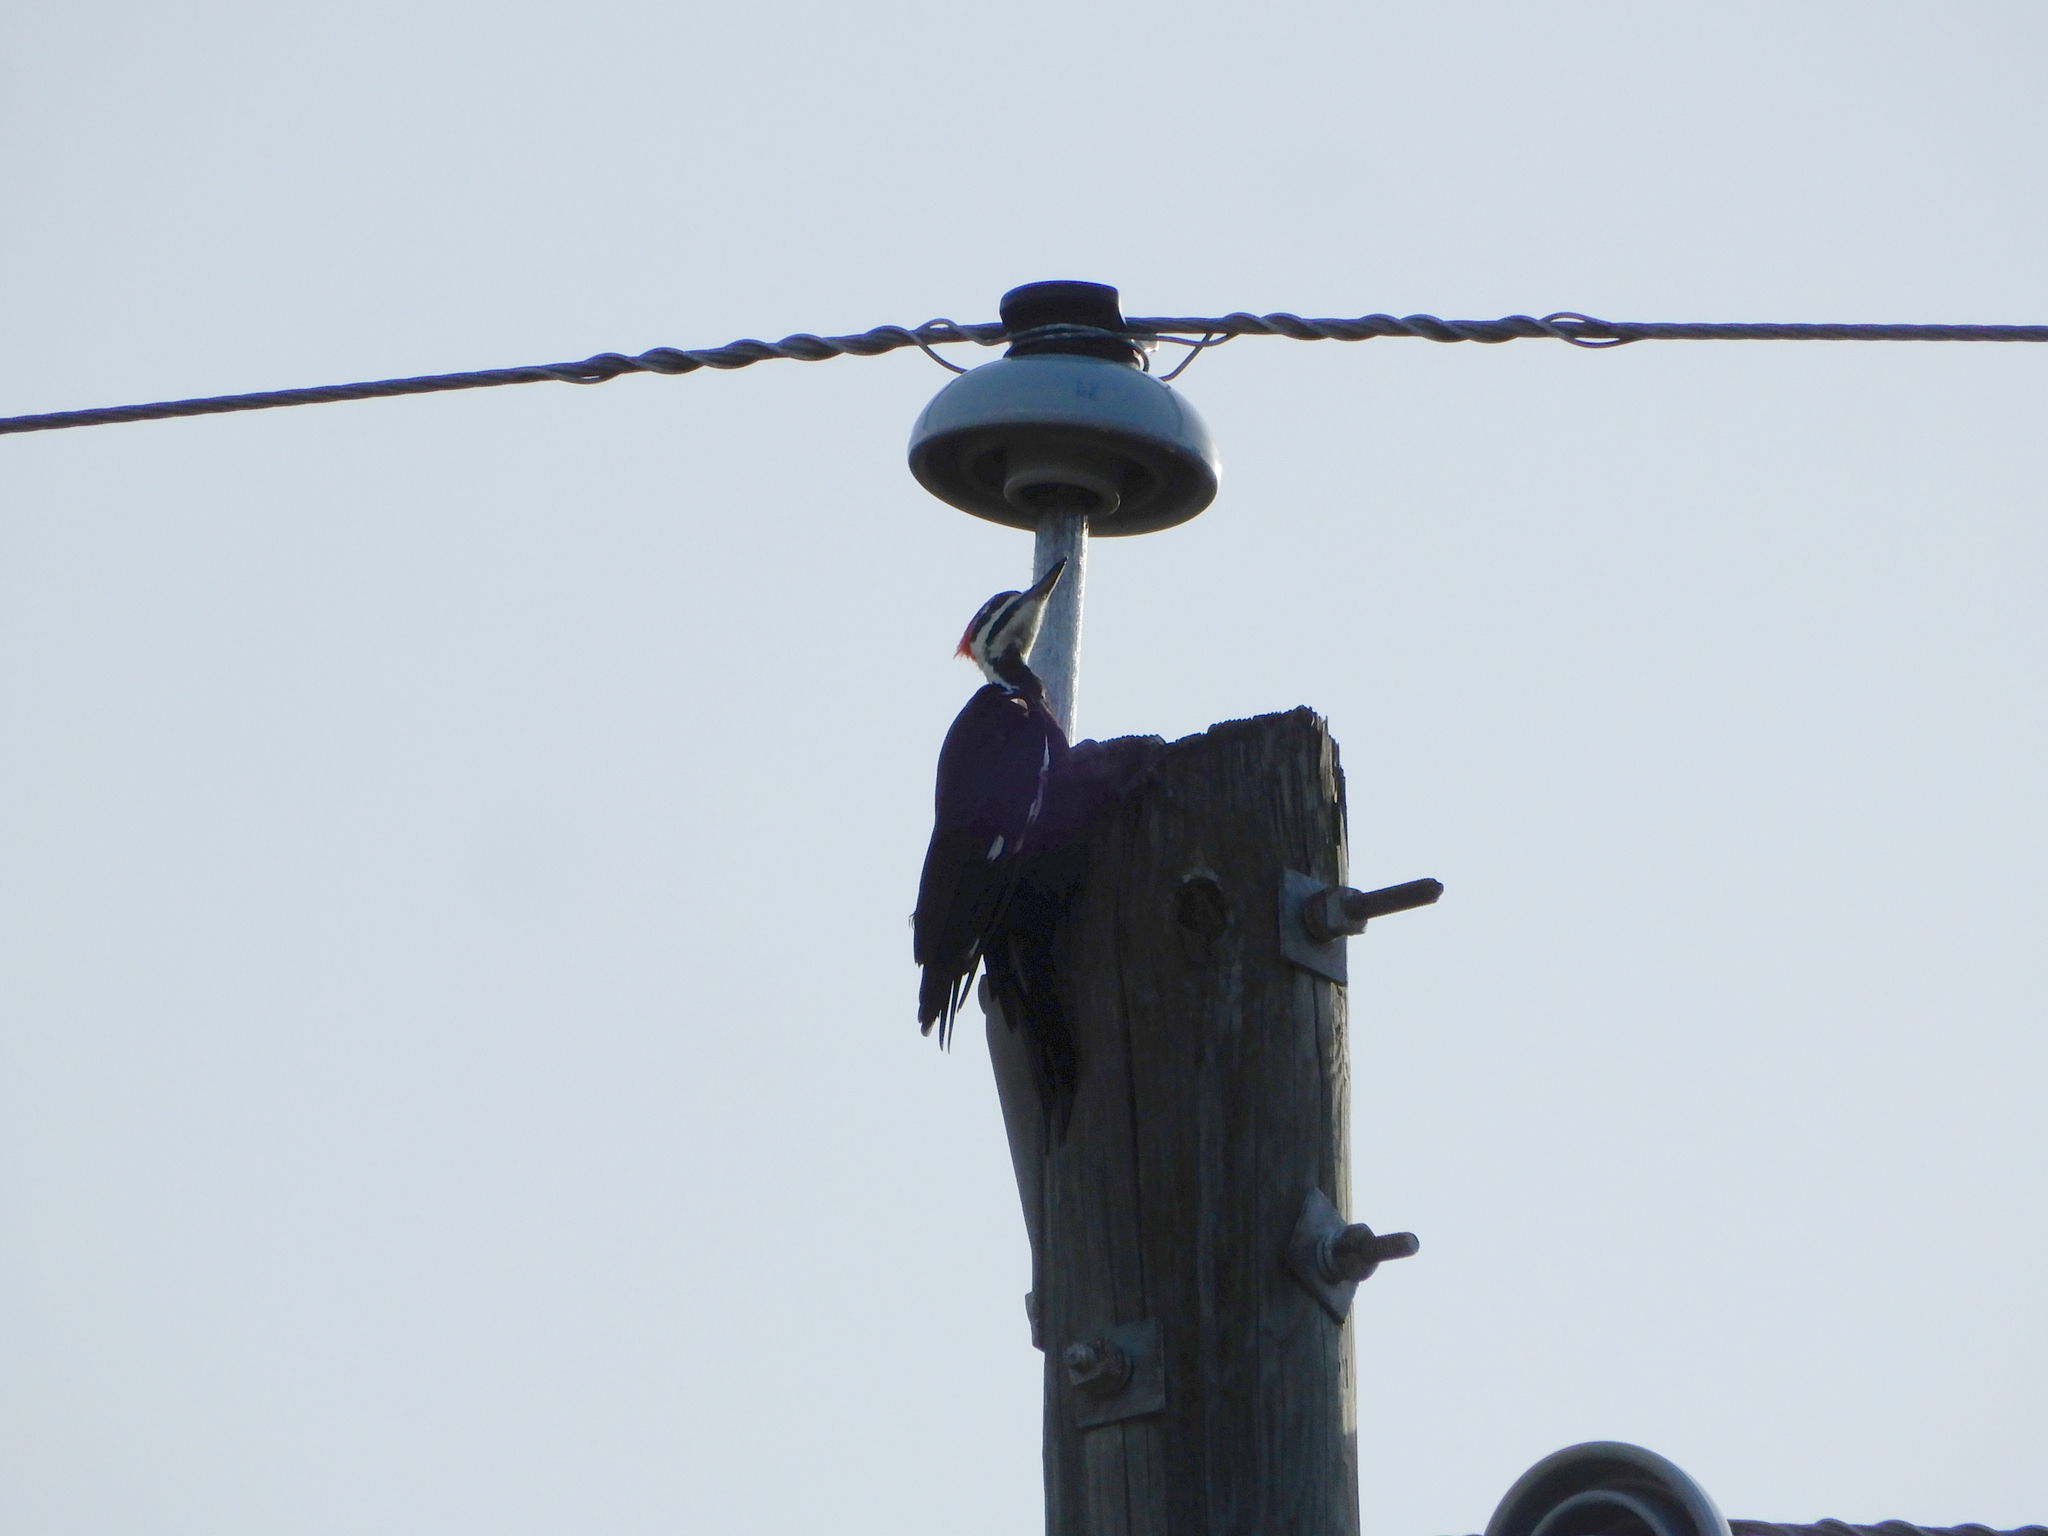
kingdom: Animalia
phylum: Chordata
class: Aves
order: Piciformes
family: Picidae
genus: Dryocopus
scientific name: Dryocopus pileatus
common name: Pileated woodpecker
